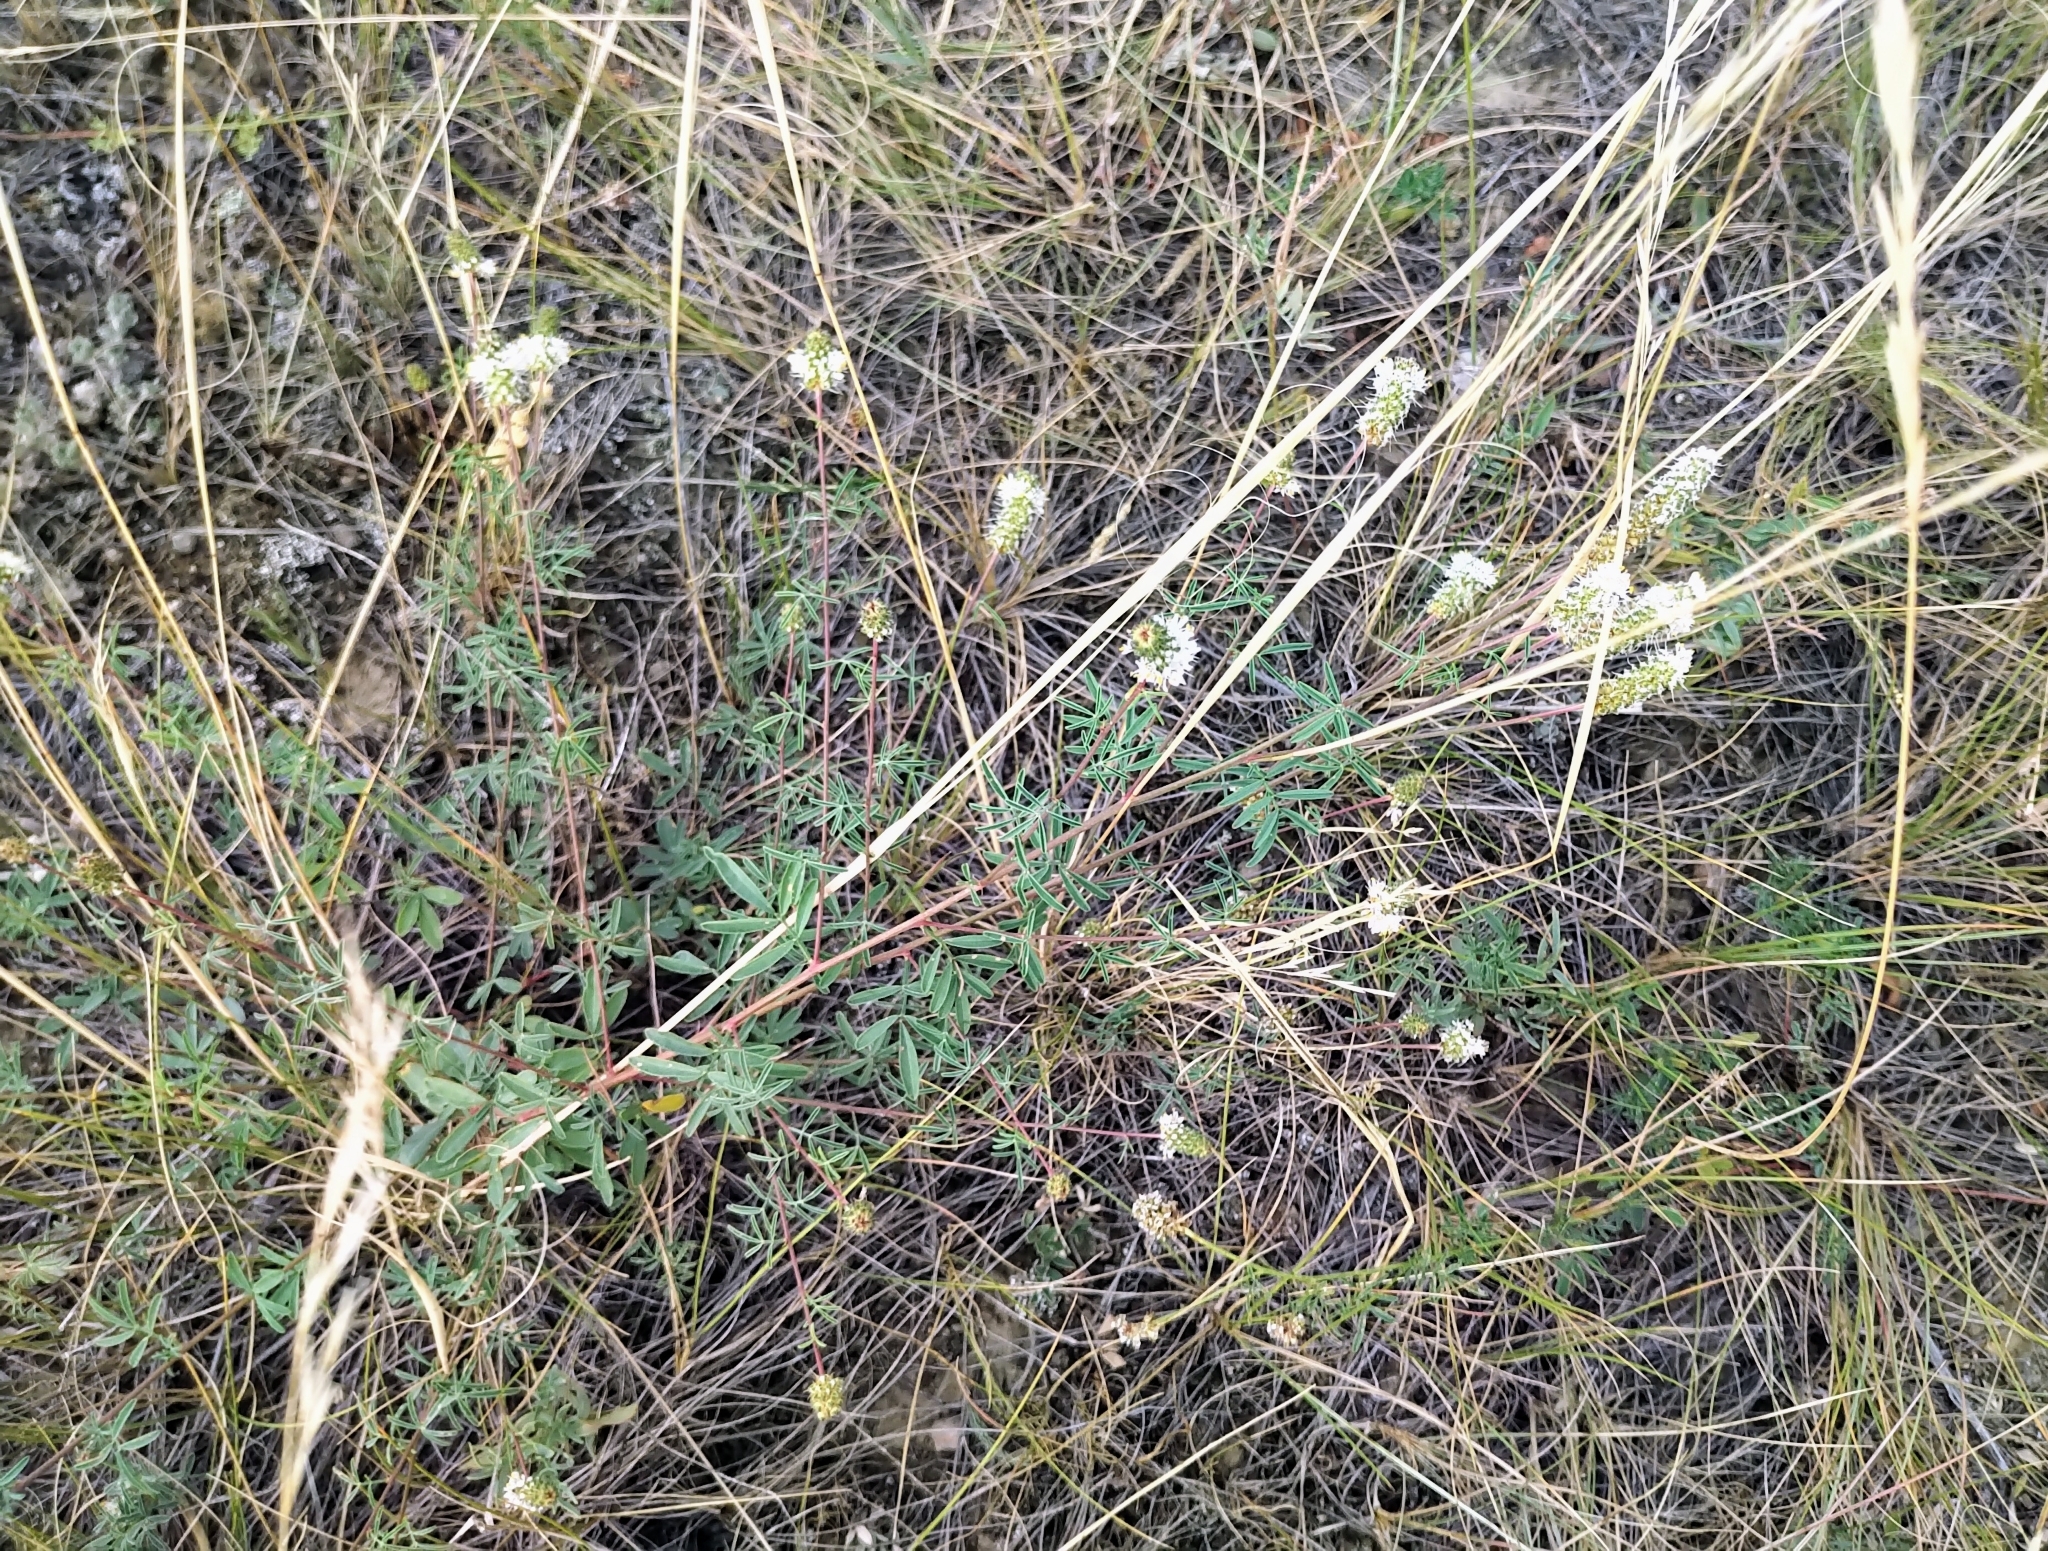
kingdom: Plantae
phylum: Tracheophyta
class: Magnoliopsida
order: Fabales
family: Fabaceae
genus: Dalea
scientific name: Dalea candida
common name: White prairie-clover
